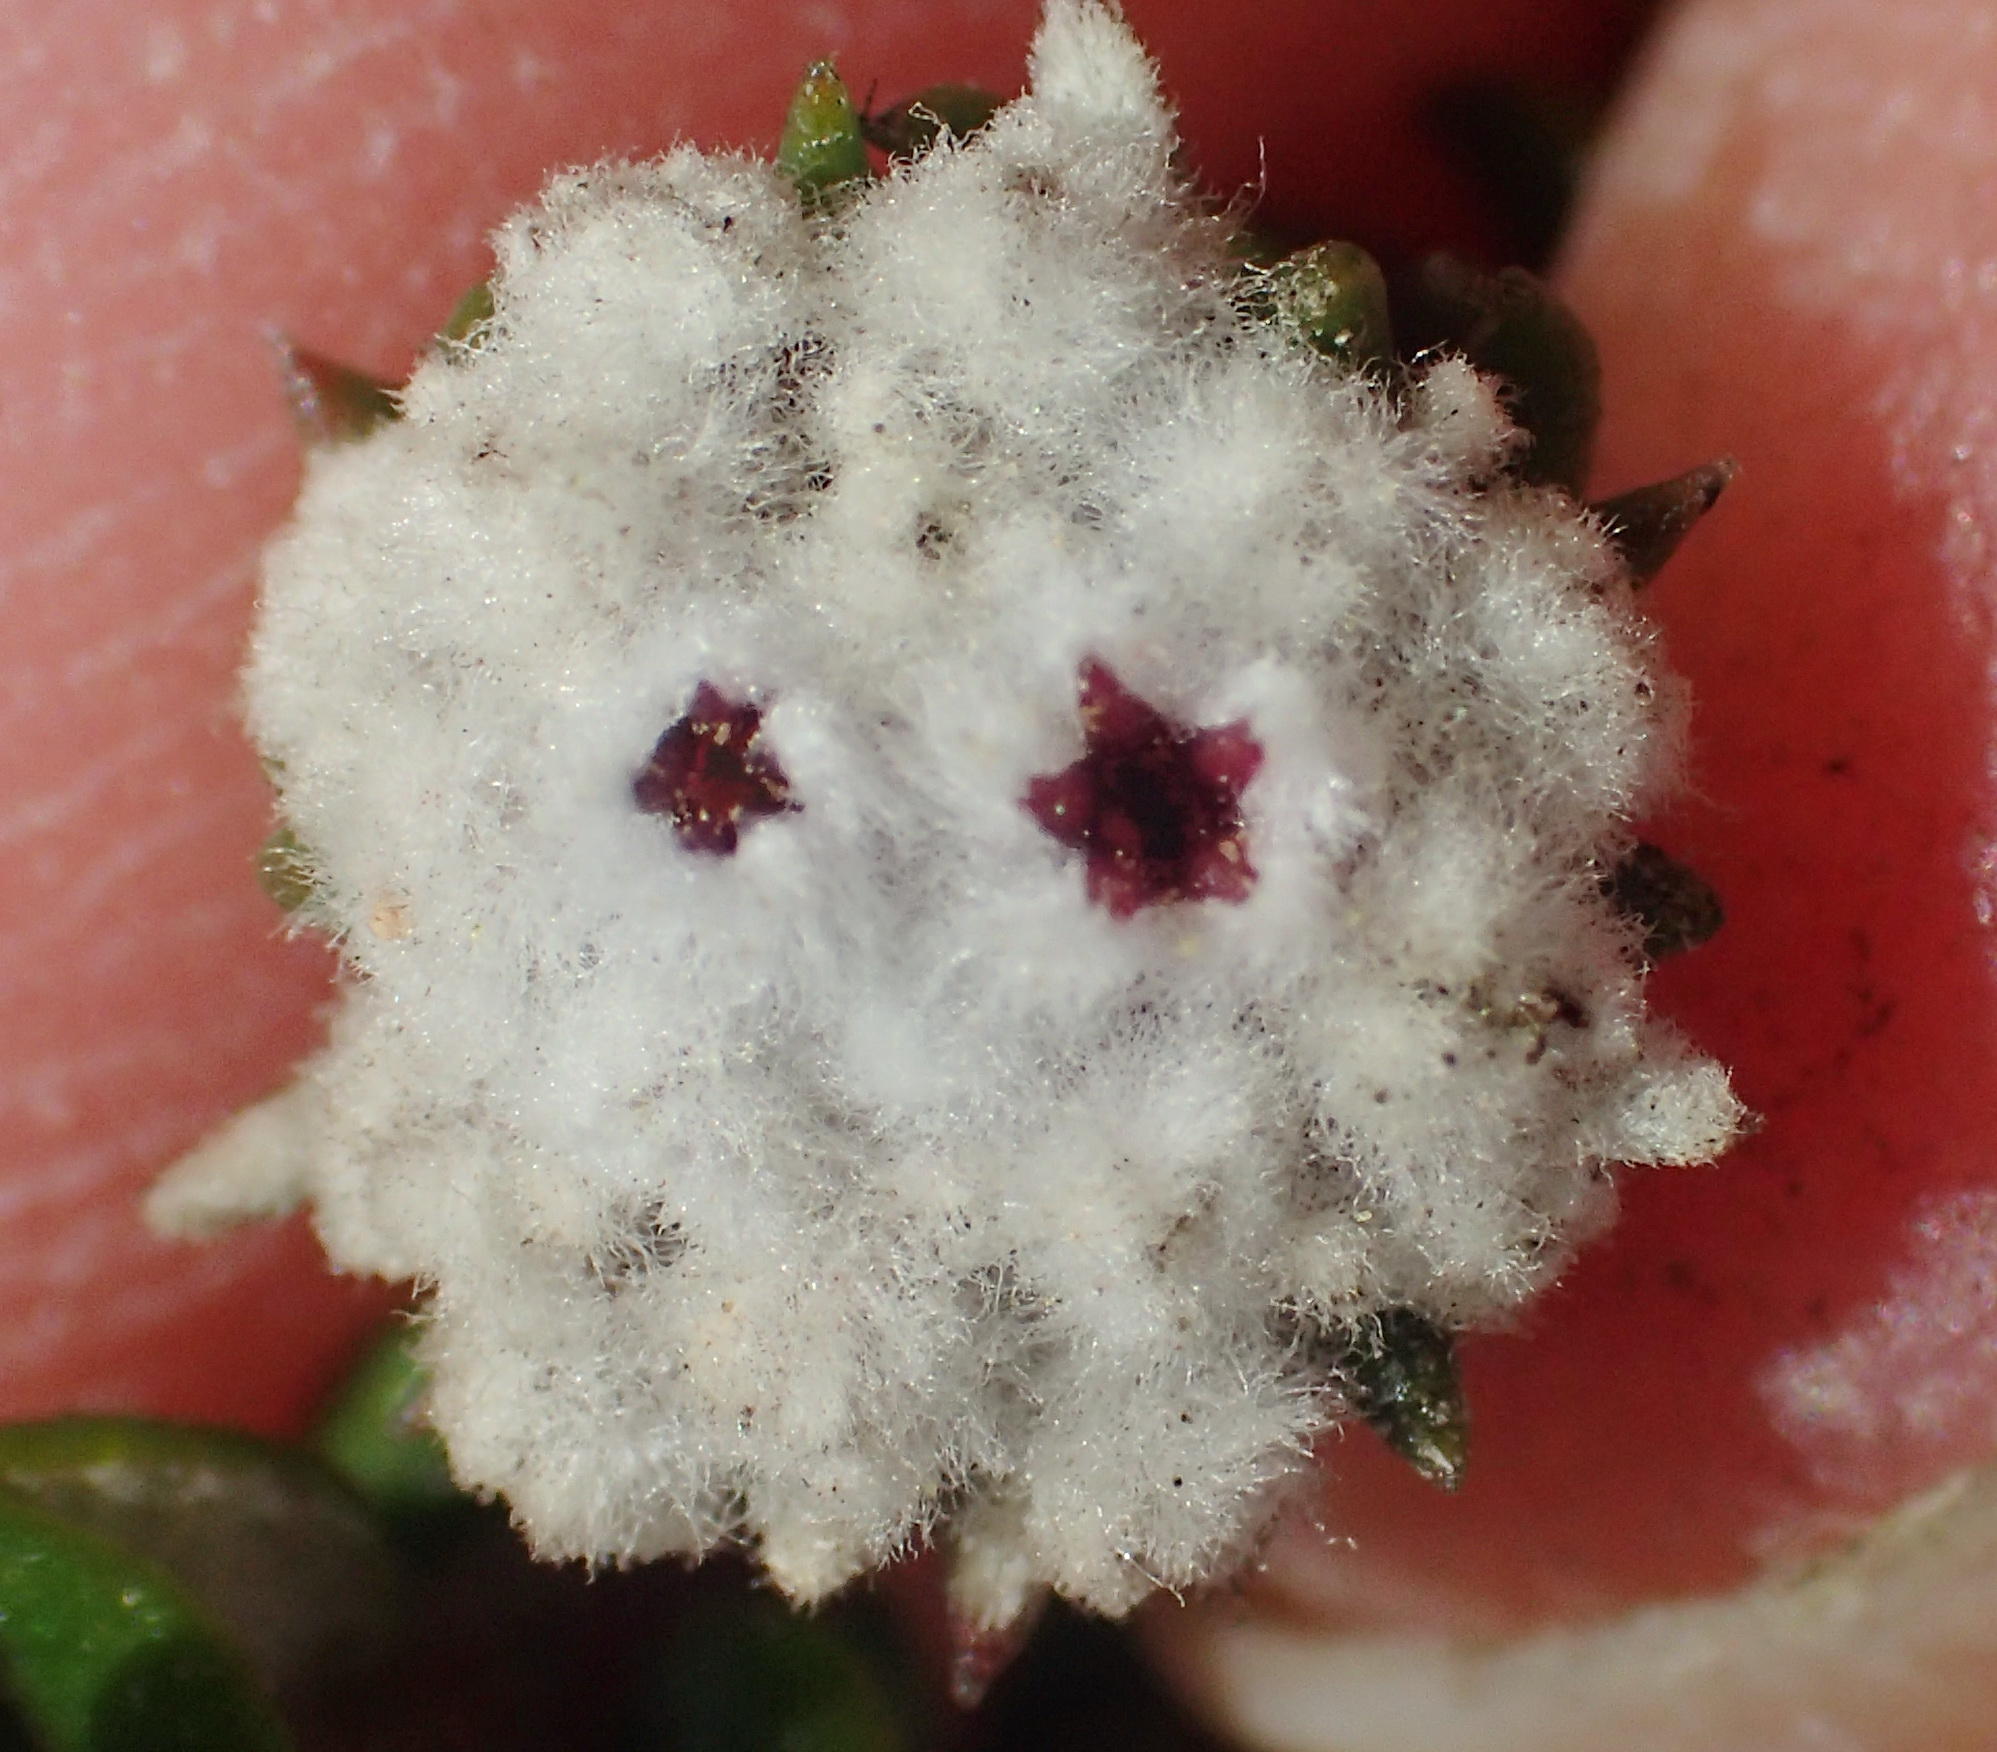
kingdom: Plantae
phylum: Tracheophyta
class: Magnoliopsida
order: Rosales
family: Rhamnaceae
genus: Phylica
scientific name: Phylica debilis
